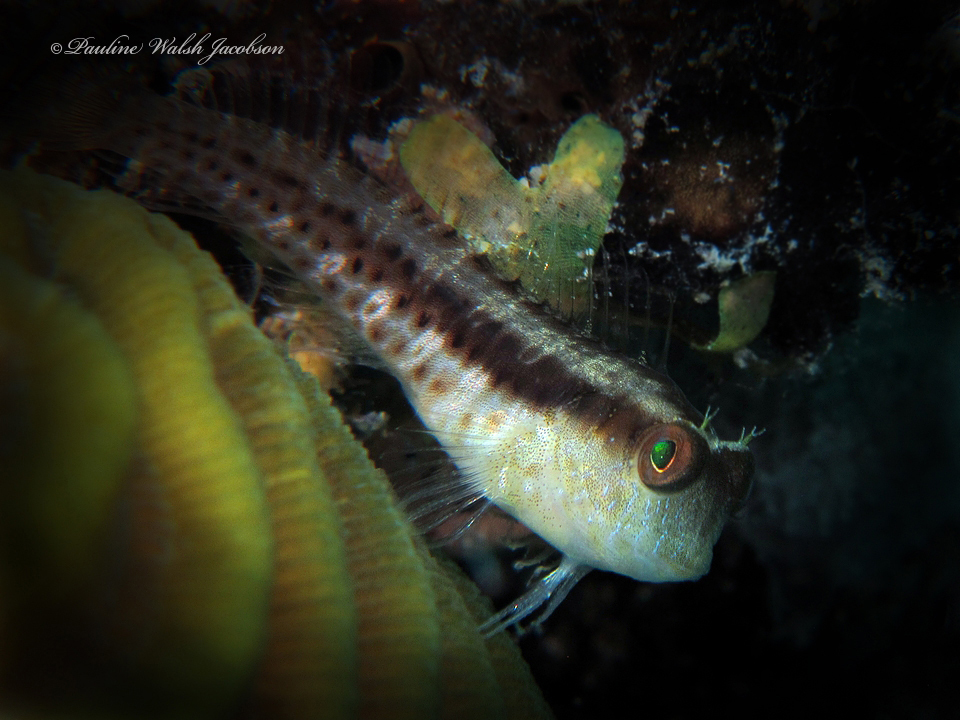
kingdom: Animalia
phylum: Chordata
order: Perciformes
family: Blenniidae
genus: Parablennius
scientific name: Parablennius marmoreus
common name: Seaweed blenny
